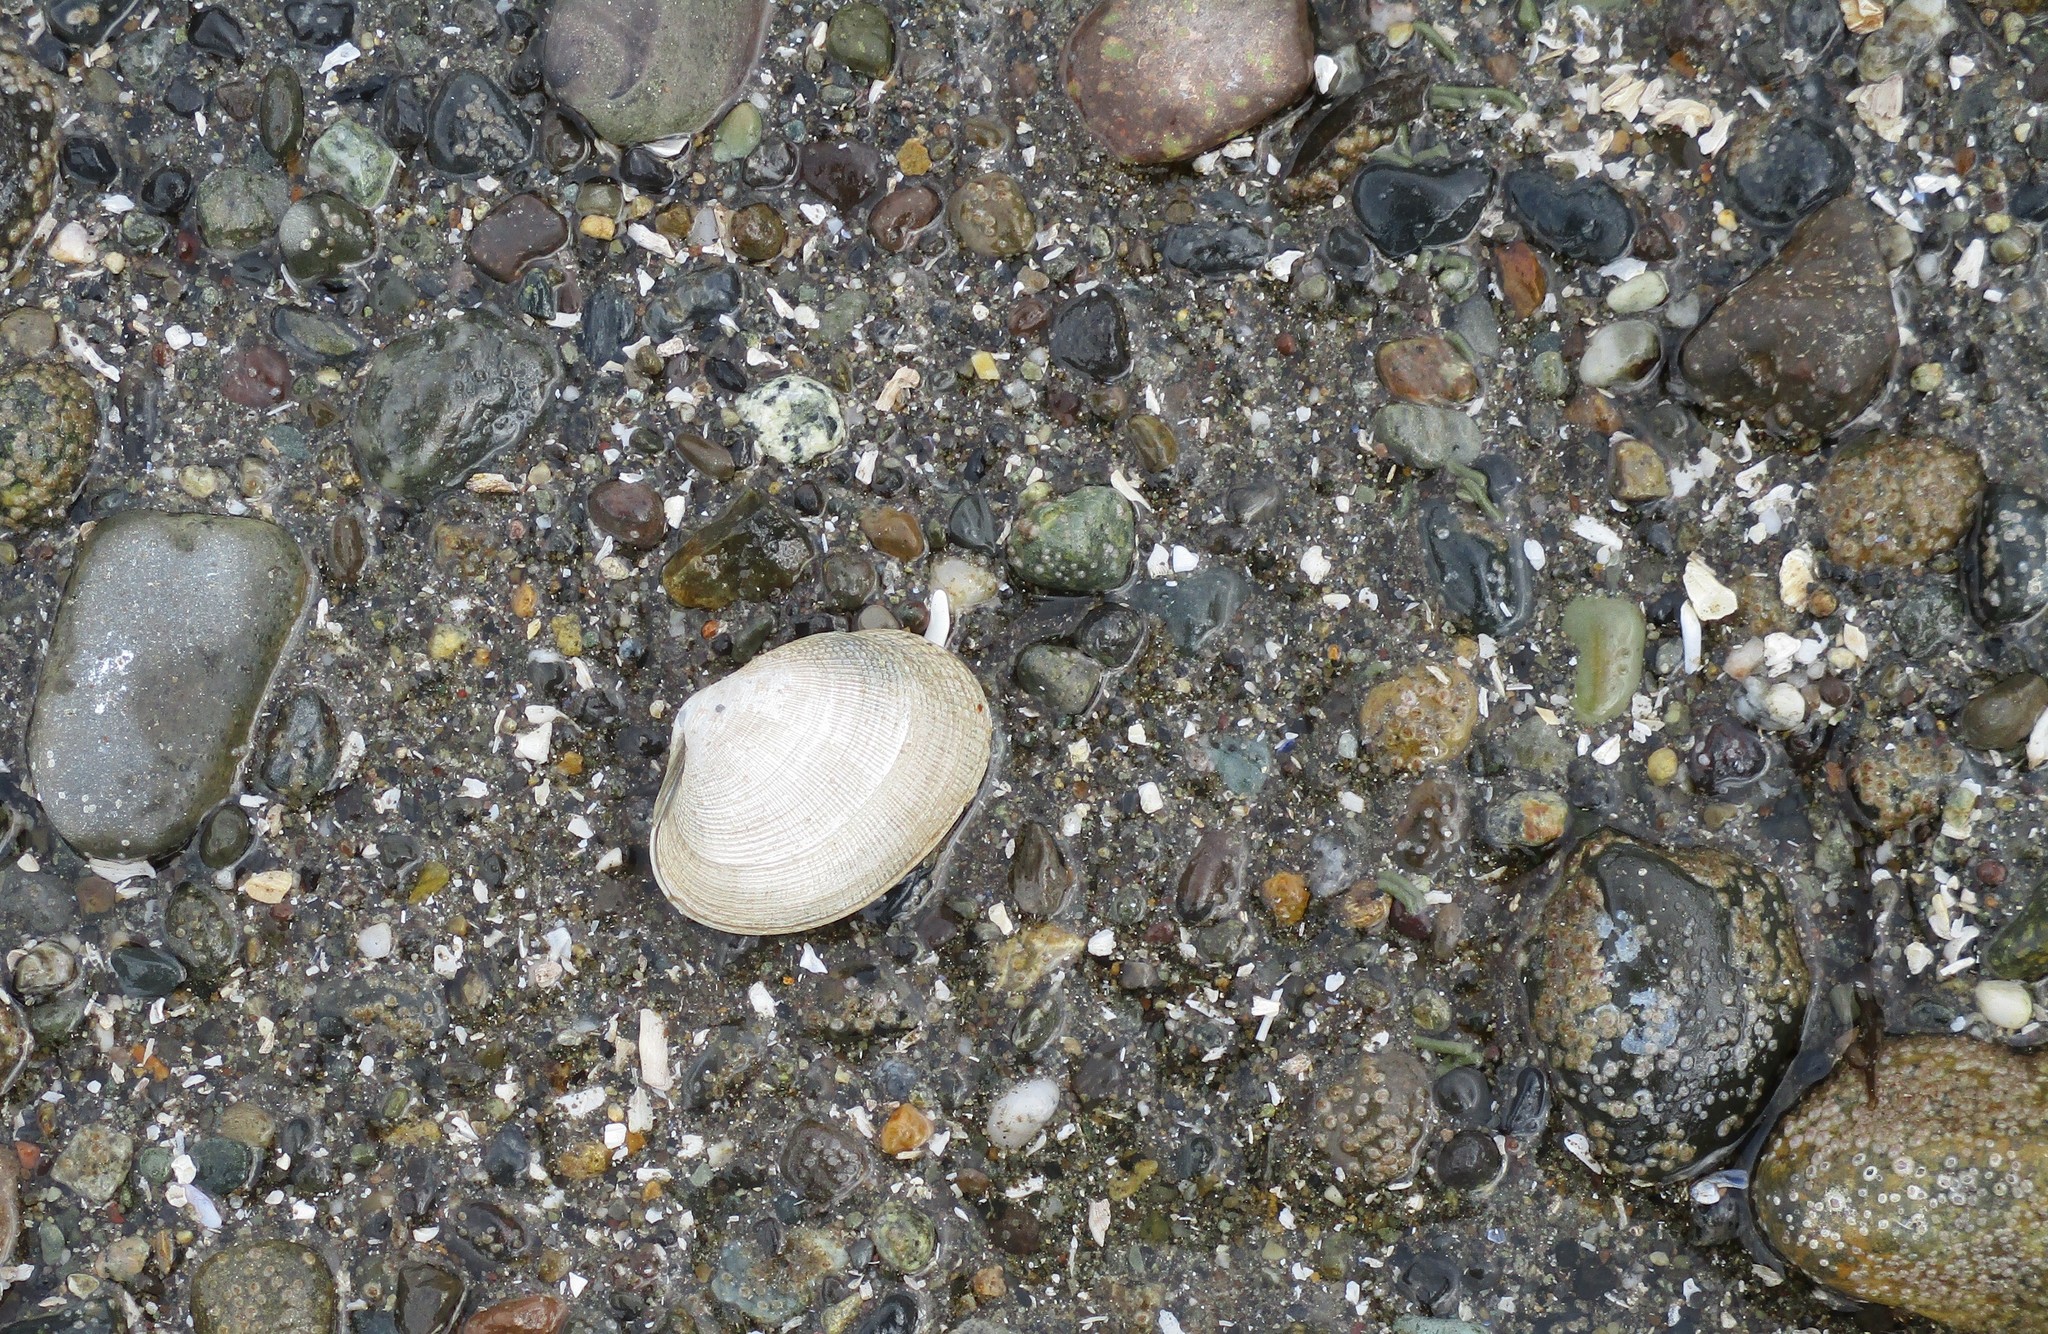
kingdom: Animalia
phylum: Mollusca
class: Bivalvia
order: Venerida
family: Veneridae
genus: Ruditapes
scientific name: Ruditapes philippinarum
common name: Manila clam
